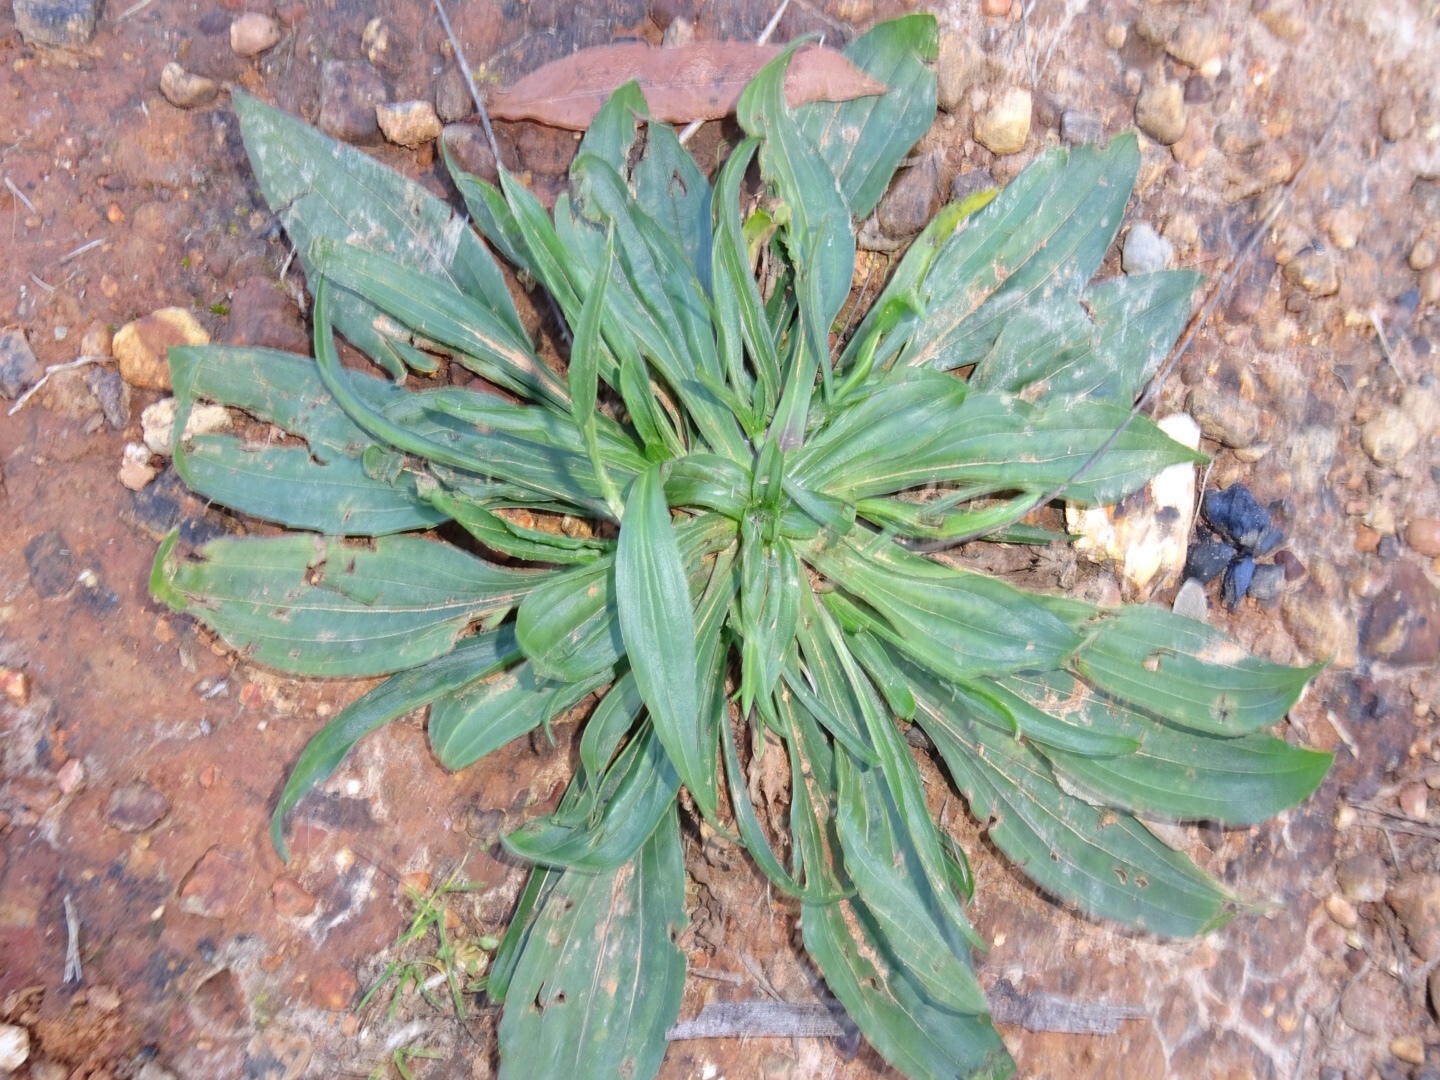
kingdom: Plantae
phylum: Tracheophyta
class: Magnoliopsida
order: Lamiales
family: Plantaginaceae
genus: Plantago
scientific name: Plantago lanceolata
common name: Ribwort plantain
